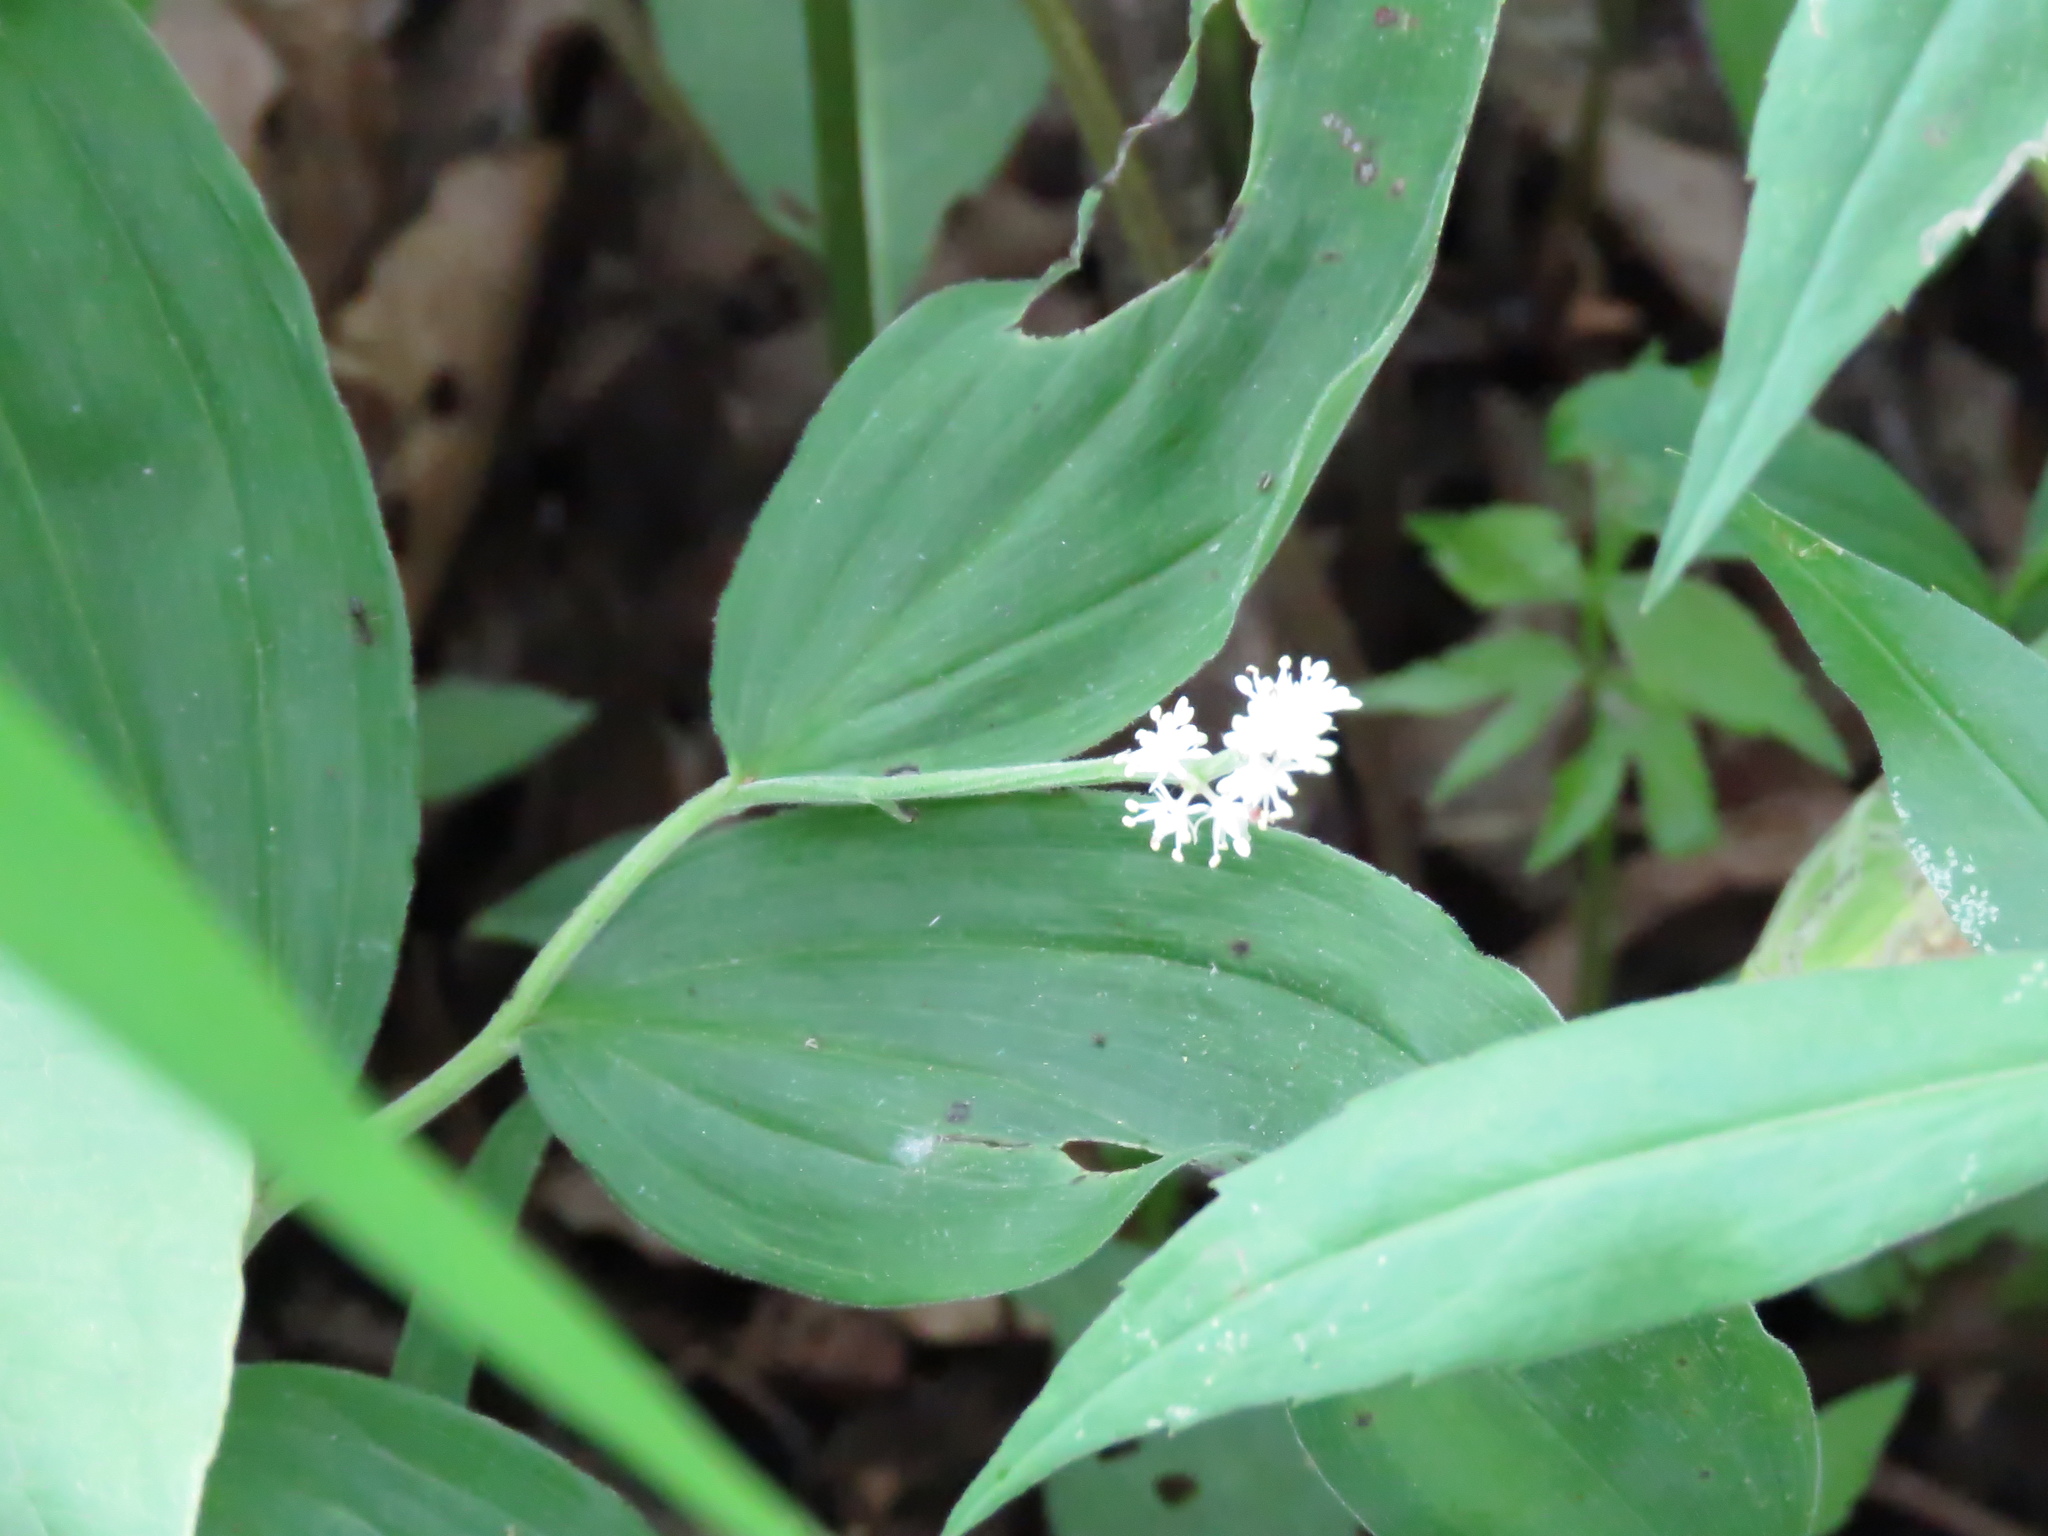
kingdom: Plantae
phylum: Tracheophyta
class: Liliopsida
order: Asparagales
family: Asparagaceae
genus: Maianthemum
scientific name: Maianthemum racemosum
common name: False spikenard
